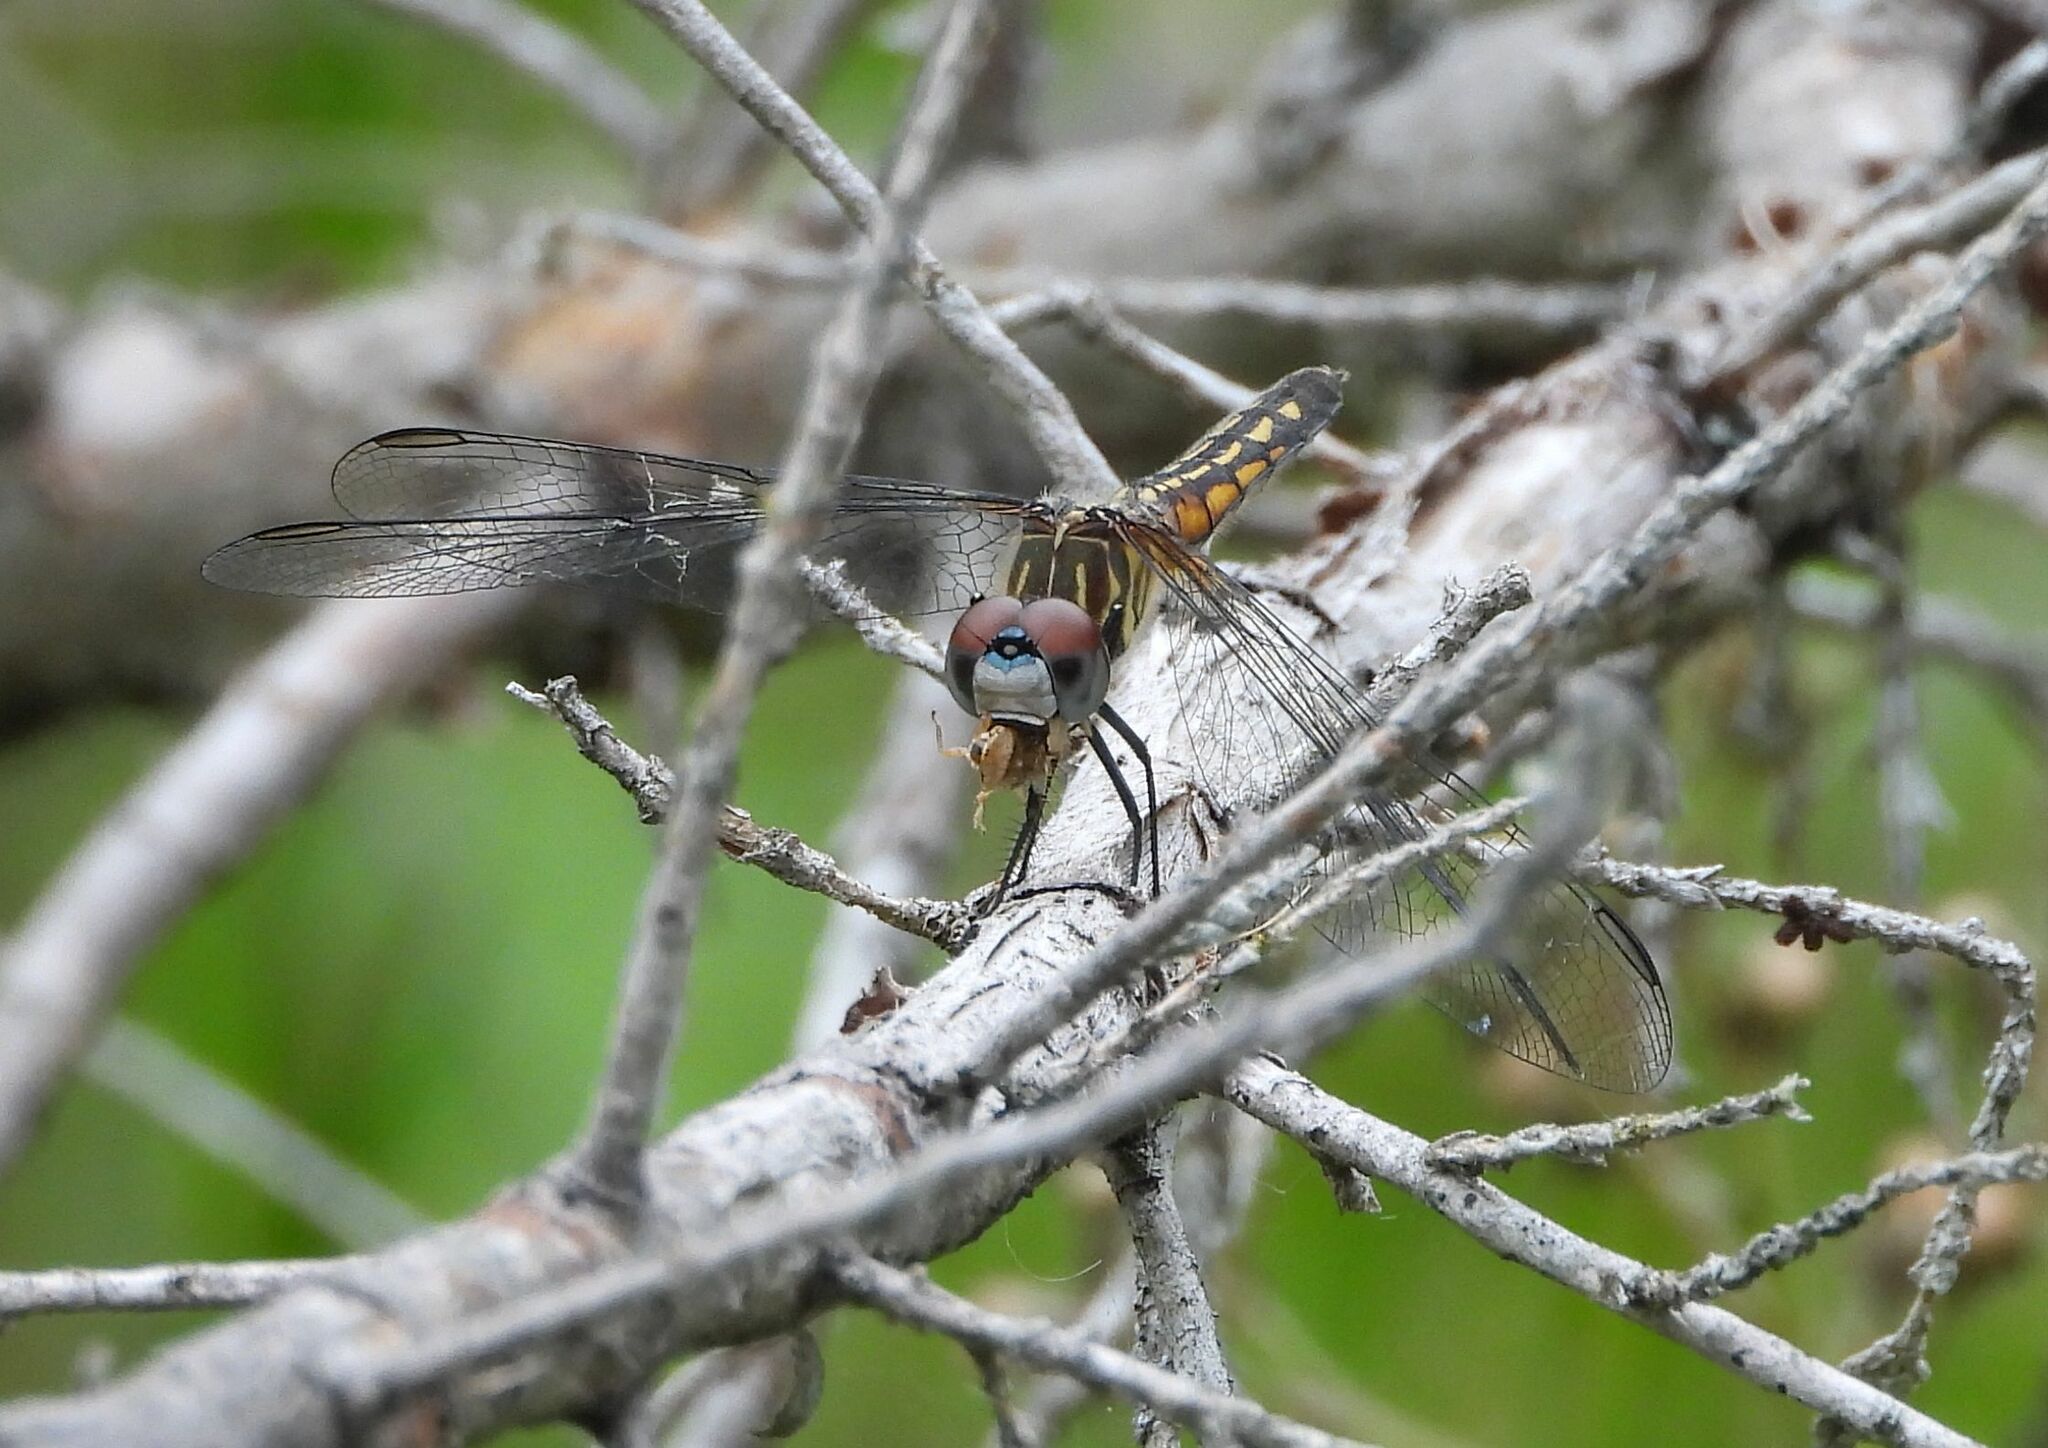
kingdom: Animalia
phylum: Arthropoda
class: Insecta
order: Odonata
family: Libellulidae
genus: Pachydiplax
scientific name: Pachydiplax longipennis
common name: Blue dasher
